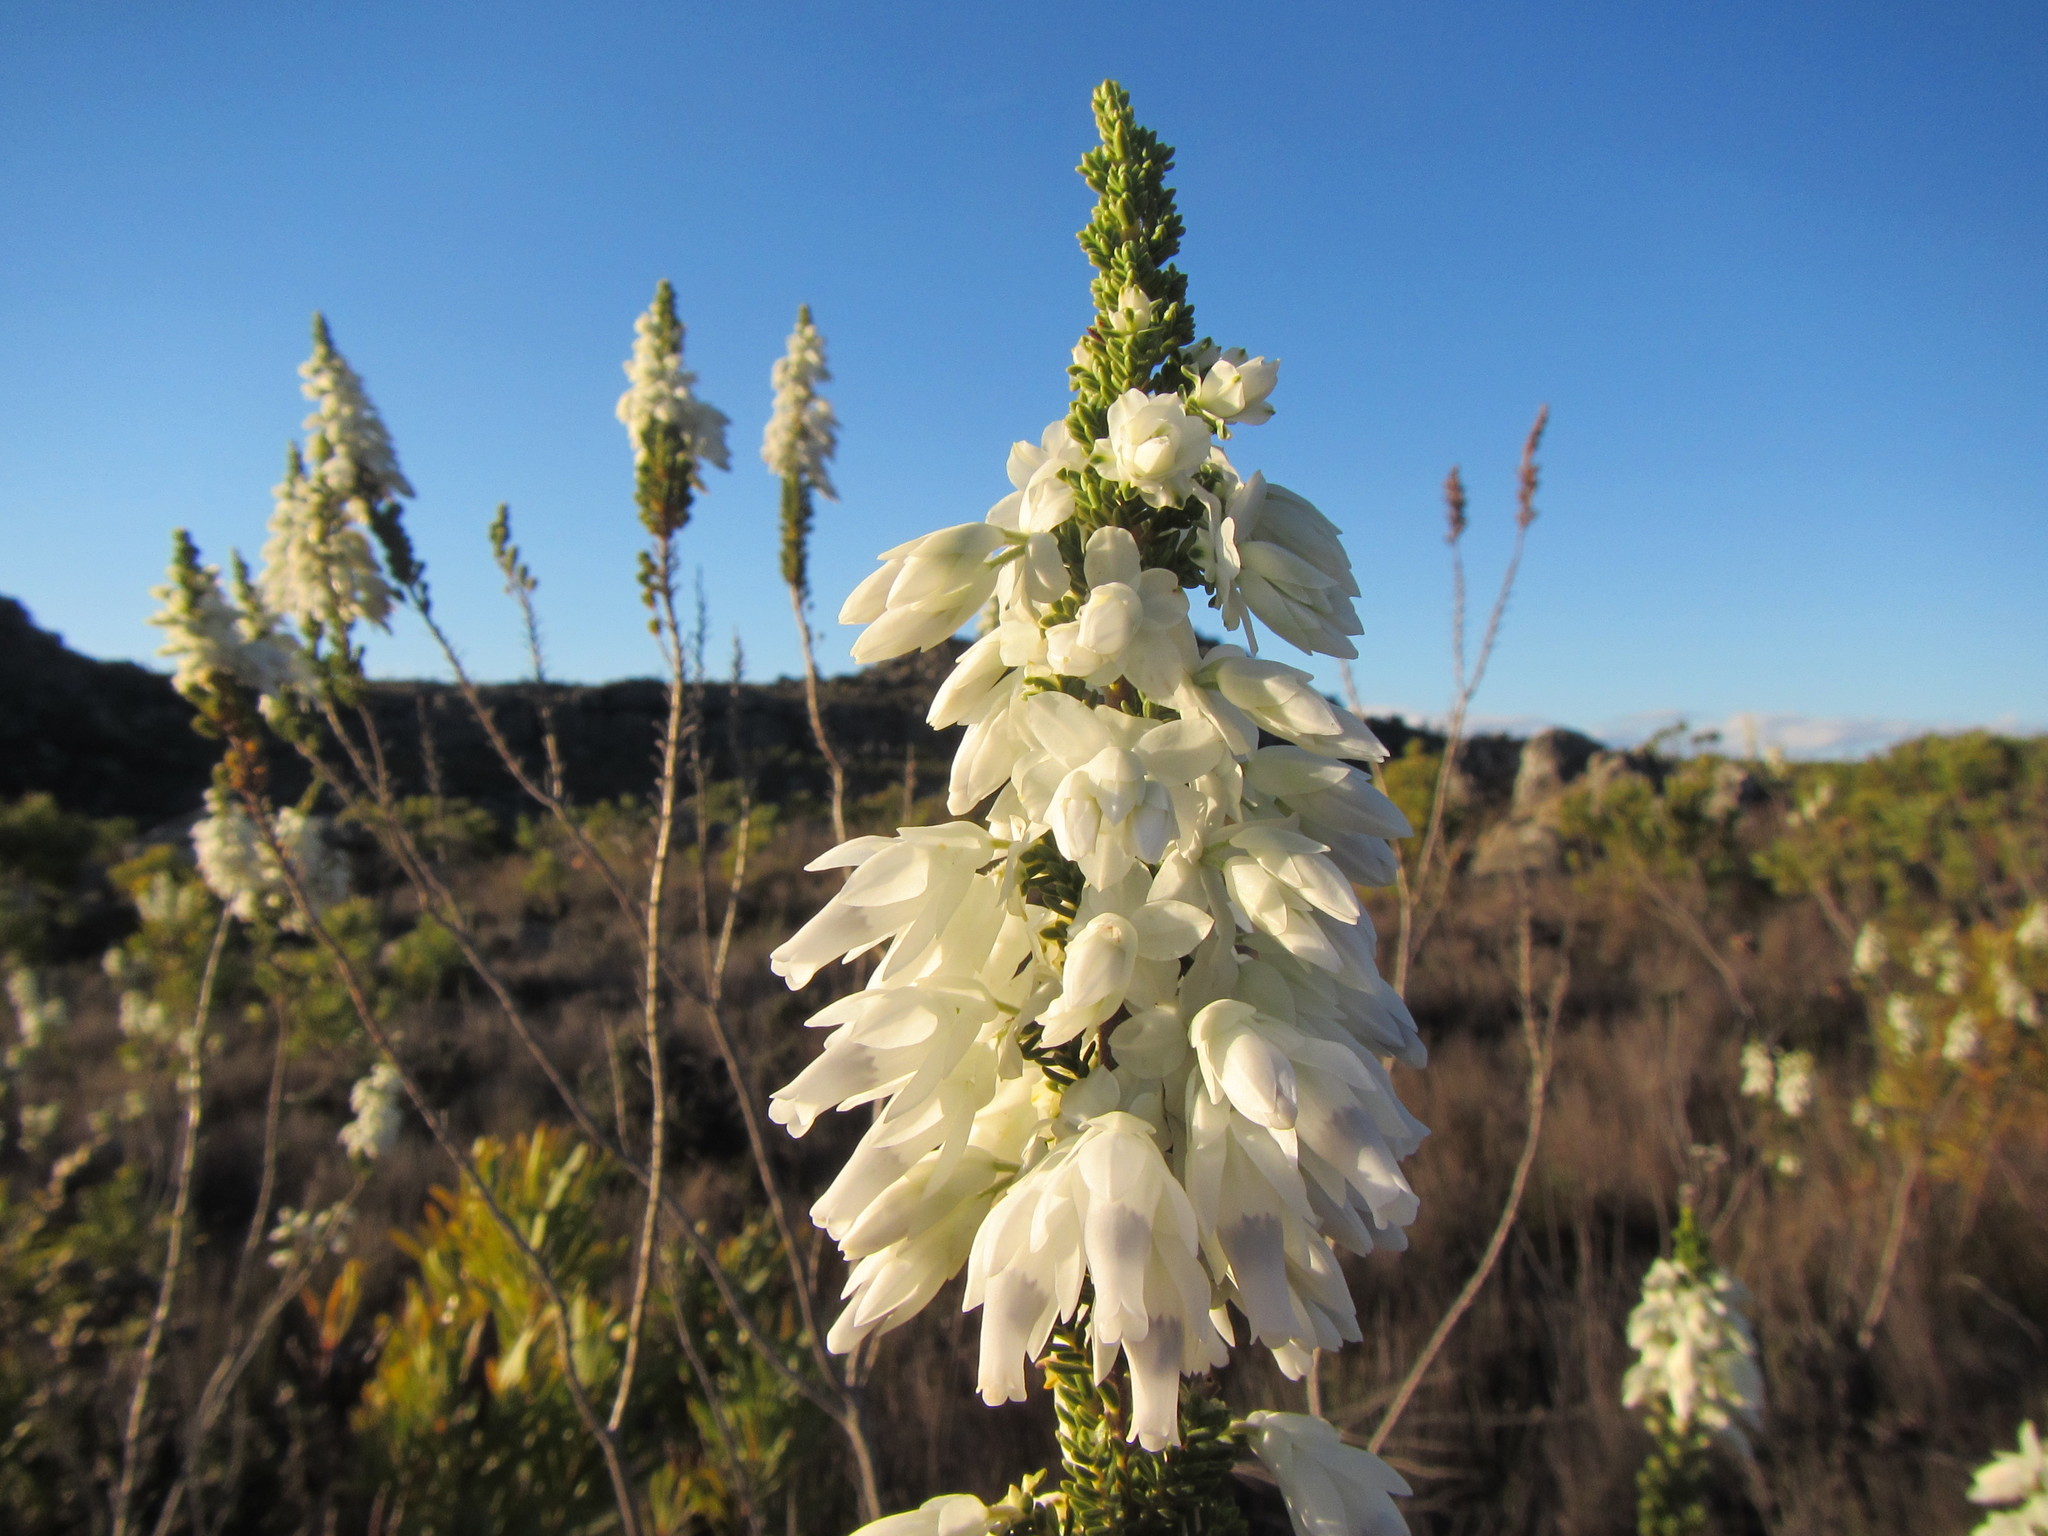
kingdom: Plantae
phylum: Tracheophyta
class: Magnoliopsida
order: Ericales
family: Ericaceae
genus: Erica
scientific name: Erica monsoniana
